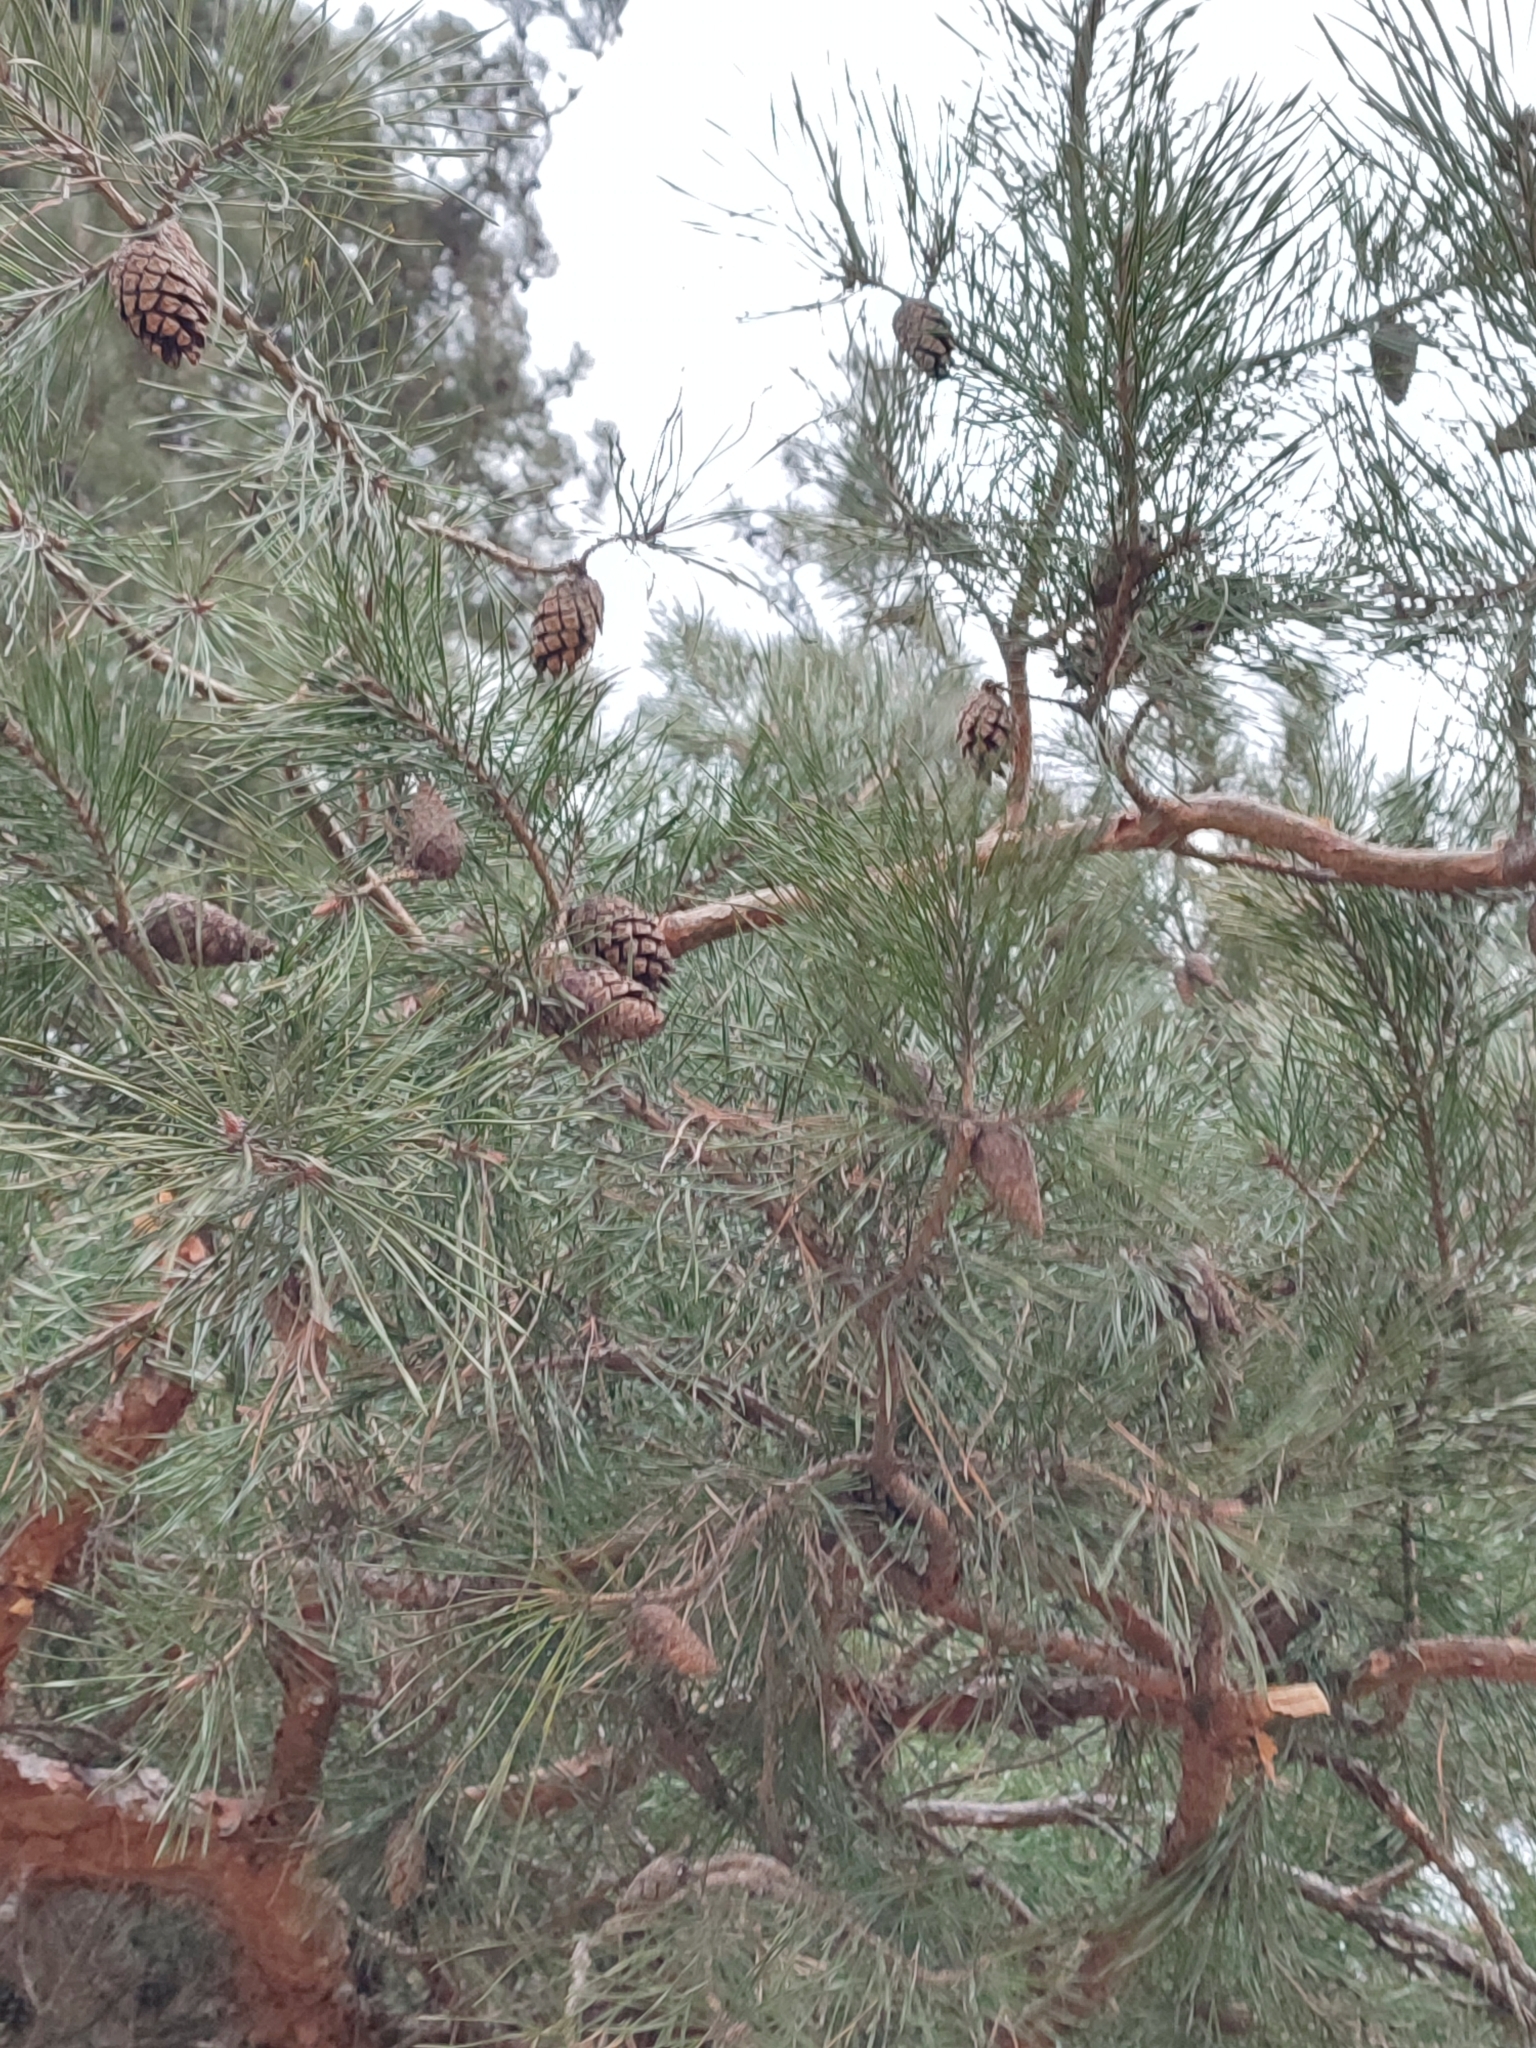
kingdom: Plantae
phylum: Tracheophyta
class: Pinopsida
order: Pinales
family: Pinaceae
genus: Pinus
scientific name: Pinus sylvestris
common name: Scots pine
